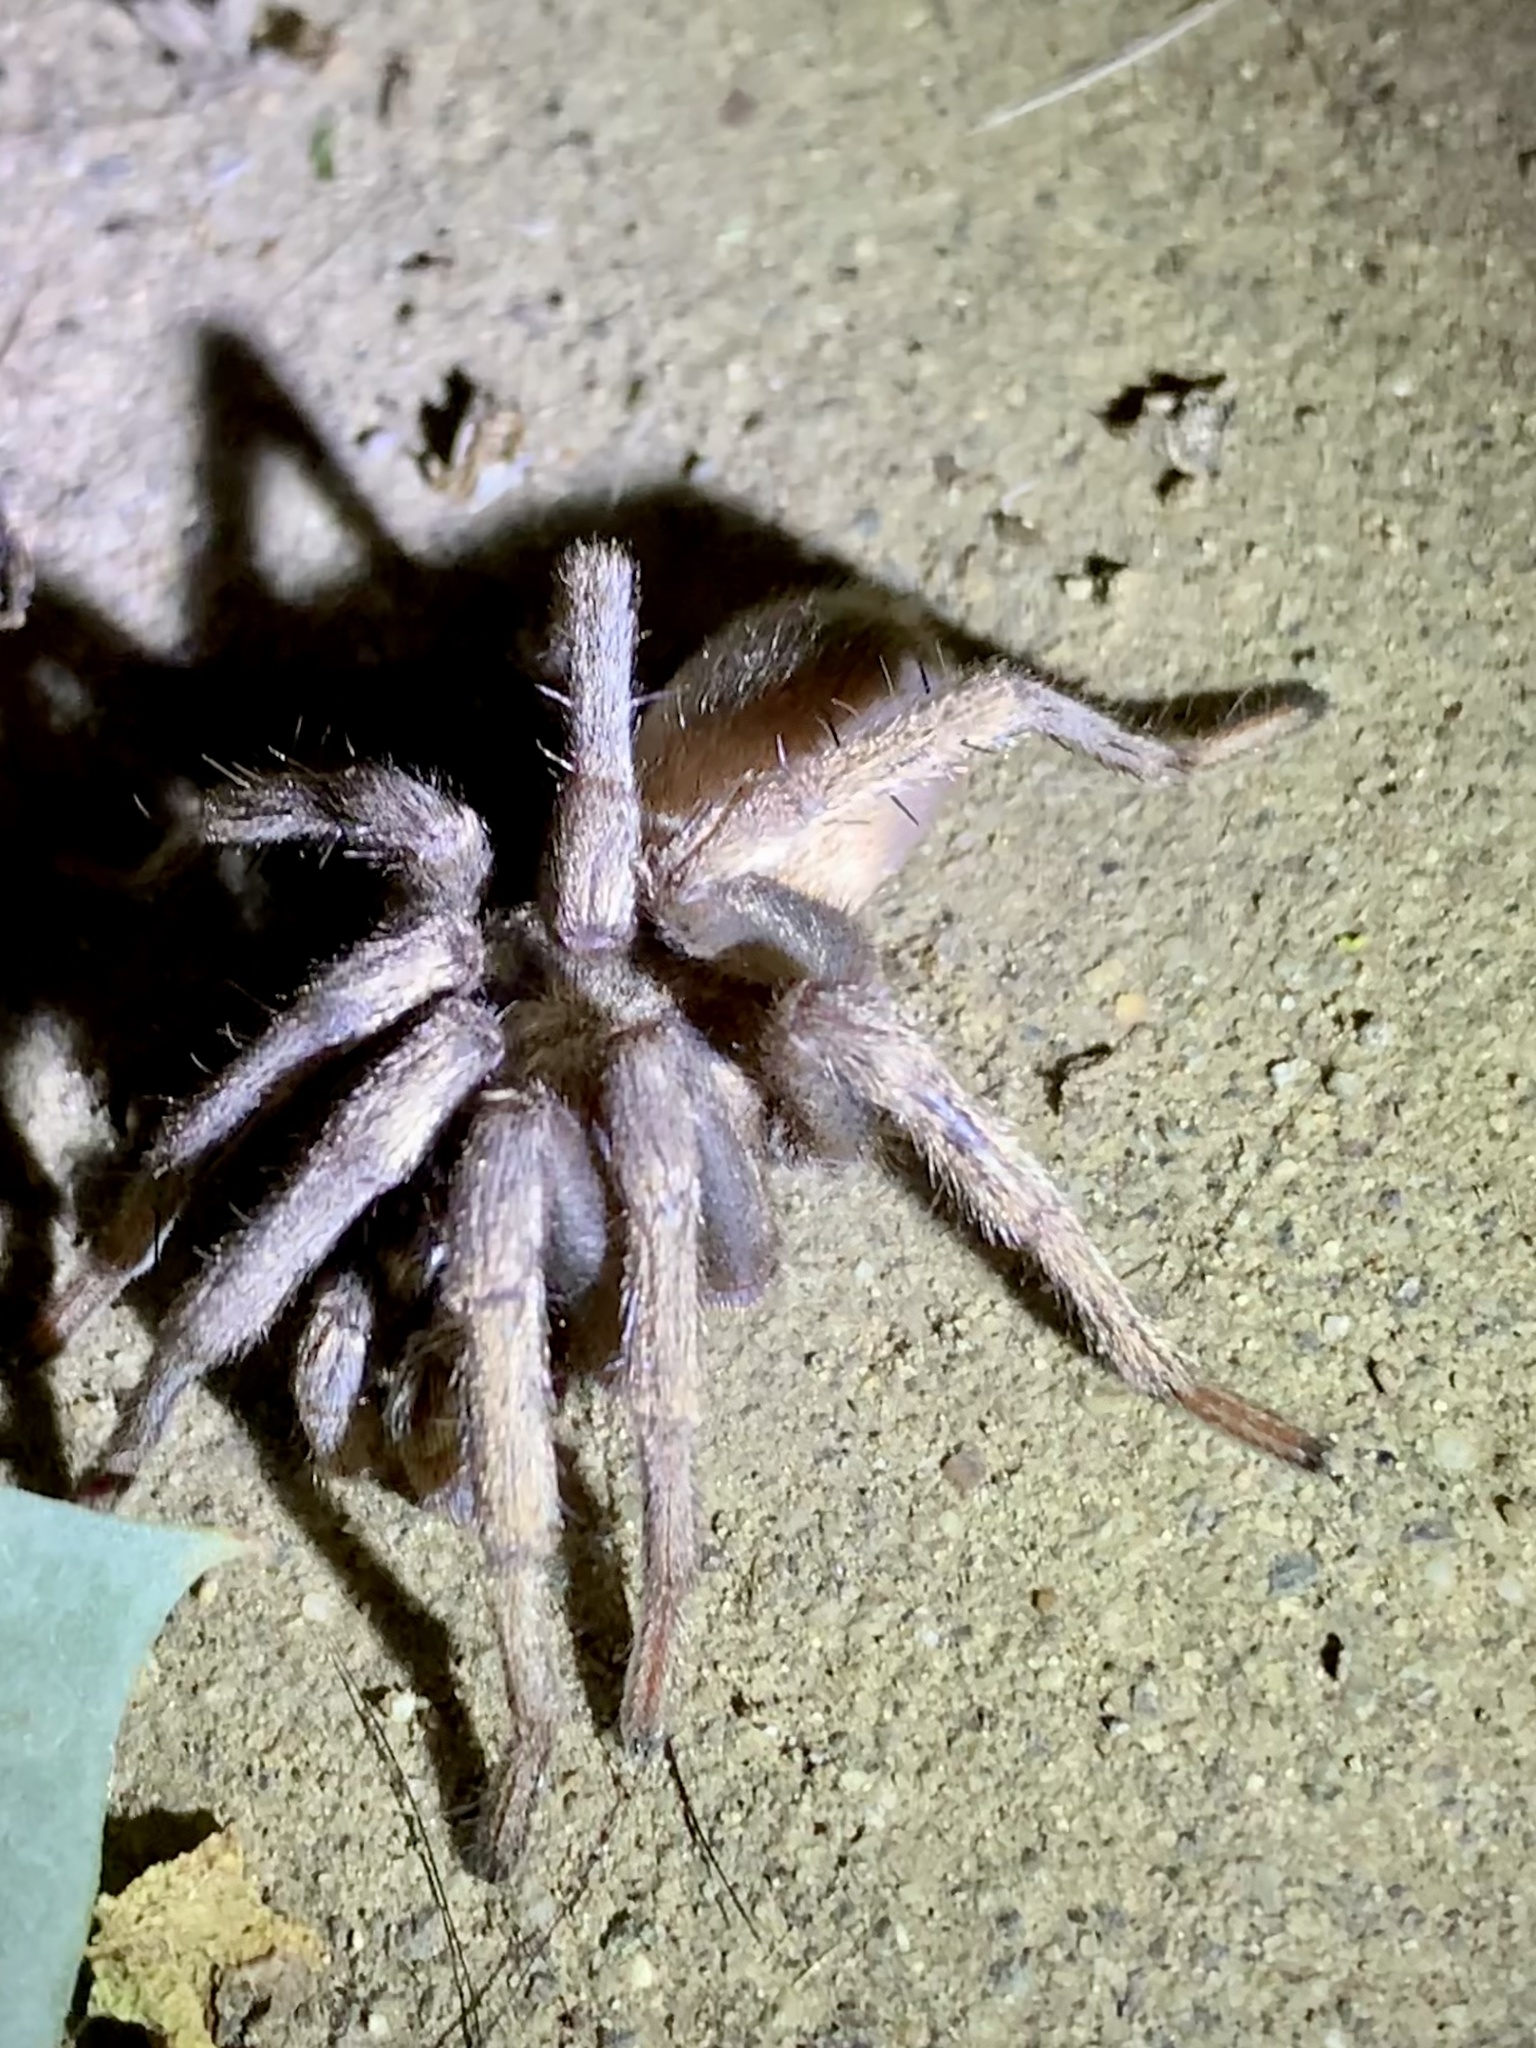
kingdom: Animalia
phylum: Arthropoda
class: Arachnida
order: Araneae
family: Nemesiidae
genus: Calisoga
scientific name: Calisoga longitarsis
